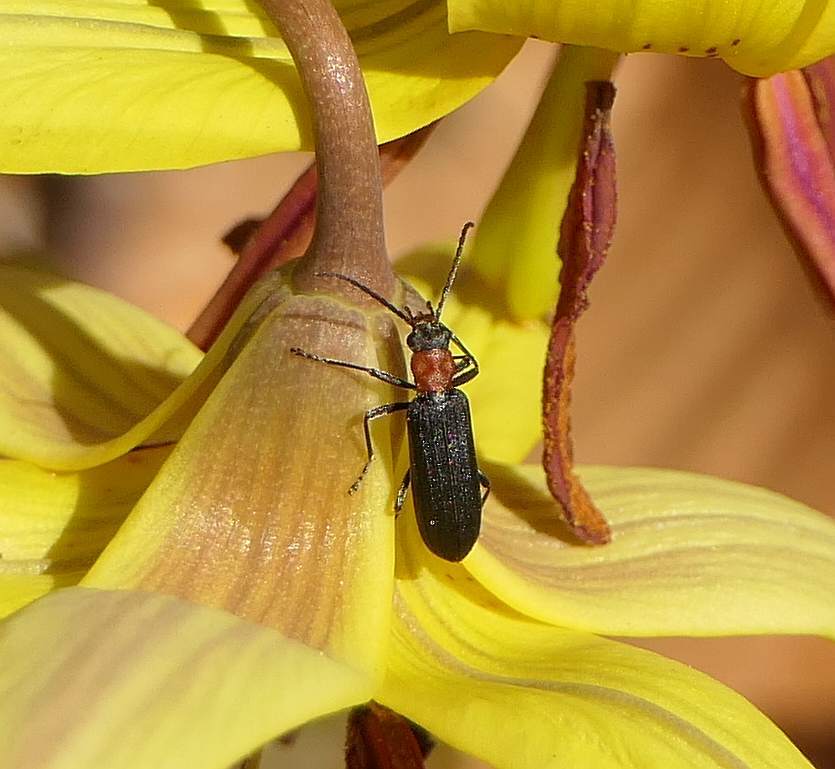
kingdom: Animalia
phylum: Arthropoda
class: Insecta
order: Coleoptera
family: Oedemeridae
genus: Ischnomera
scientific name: Ischnomera
